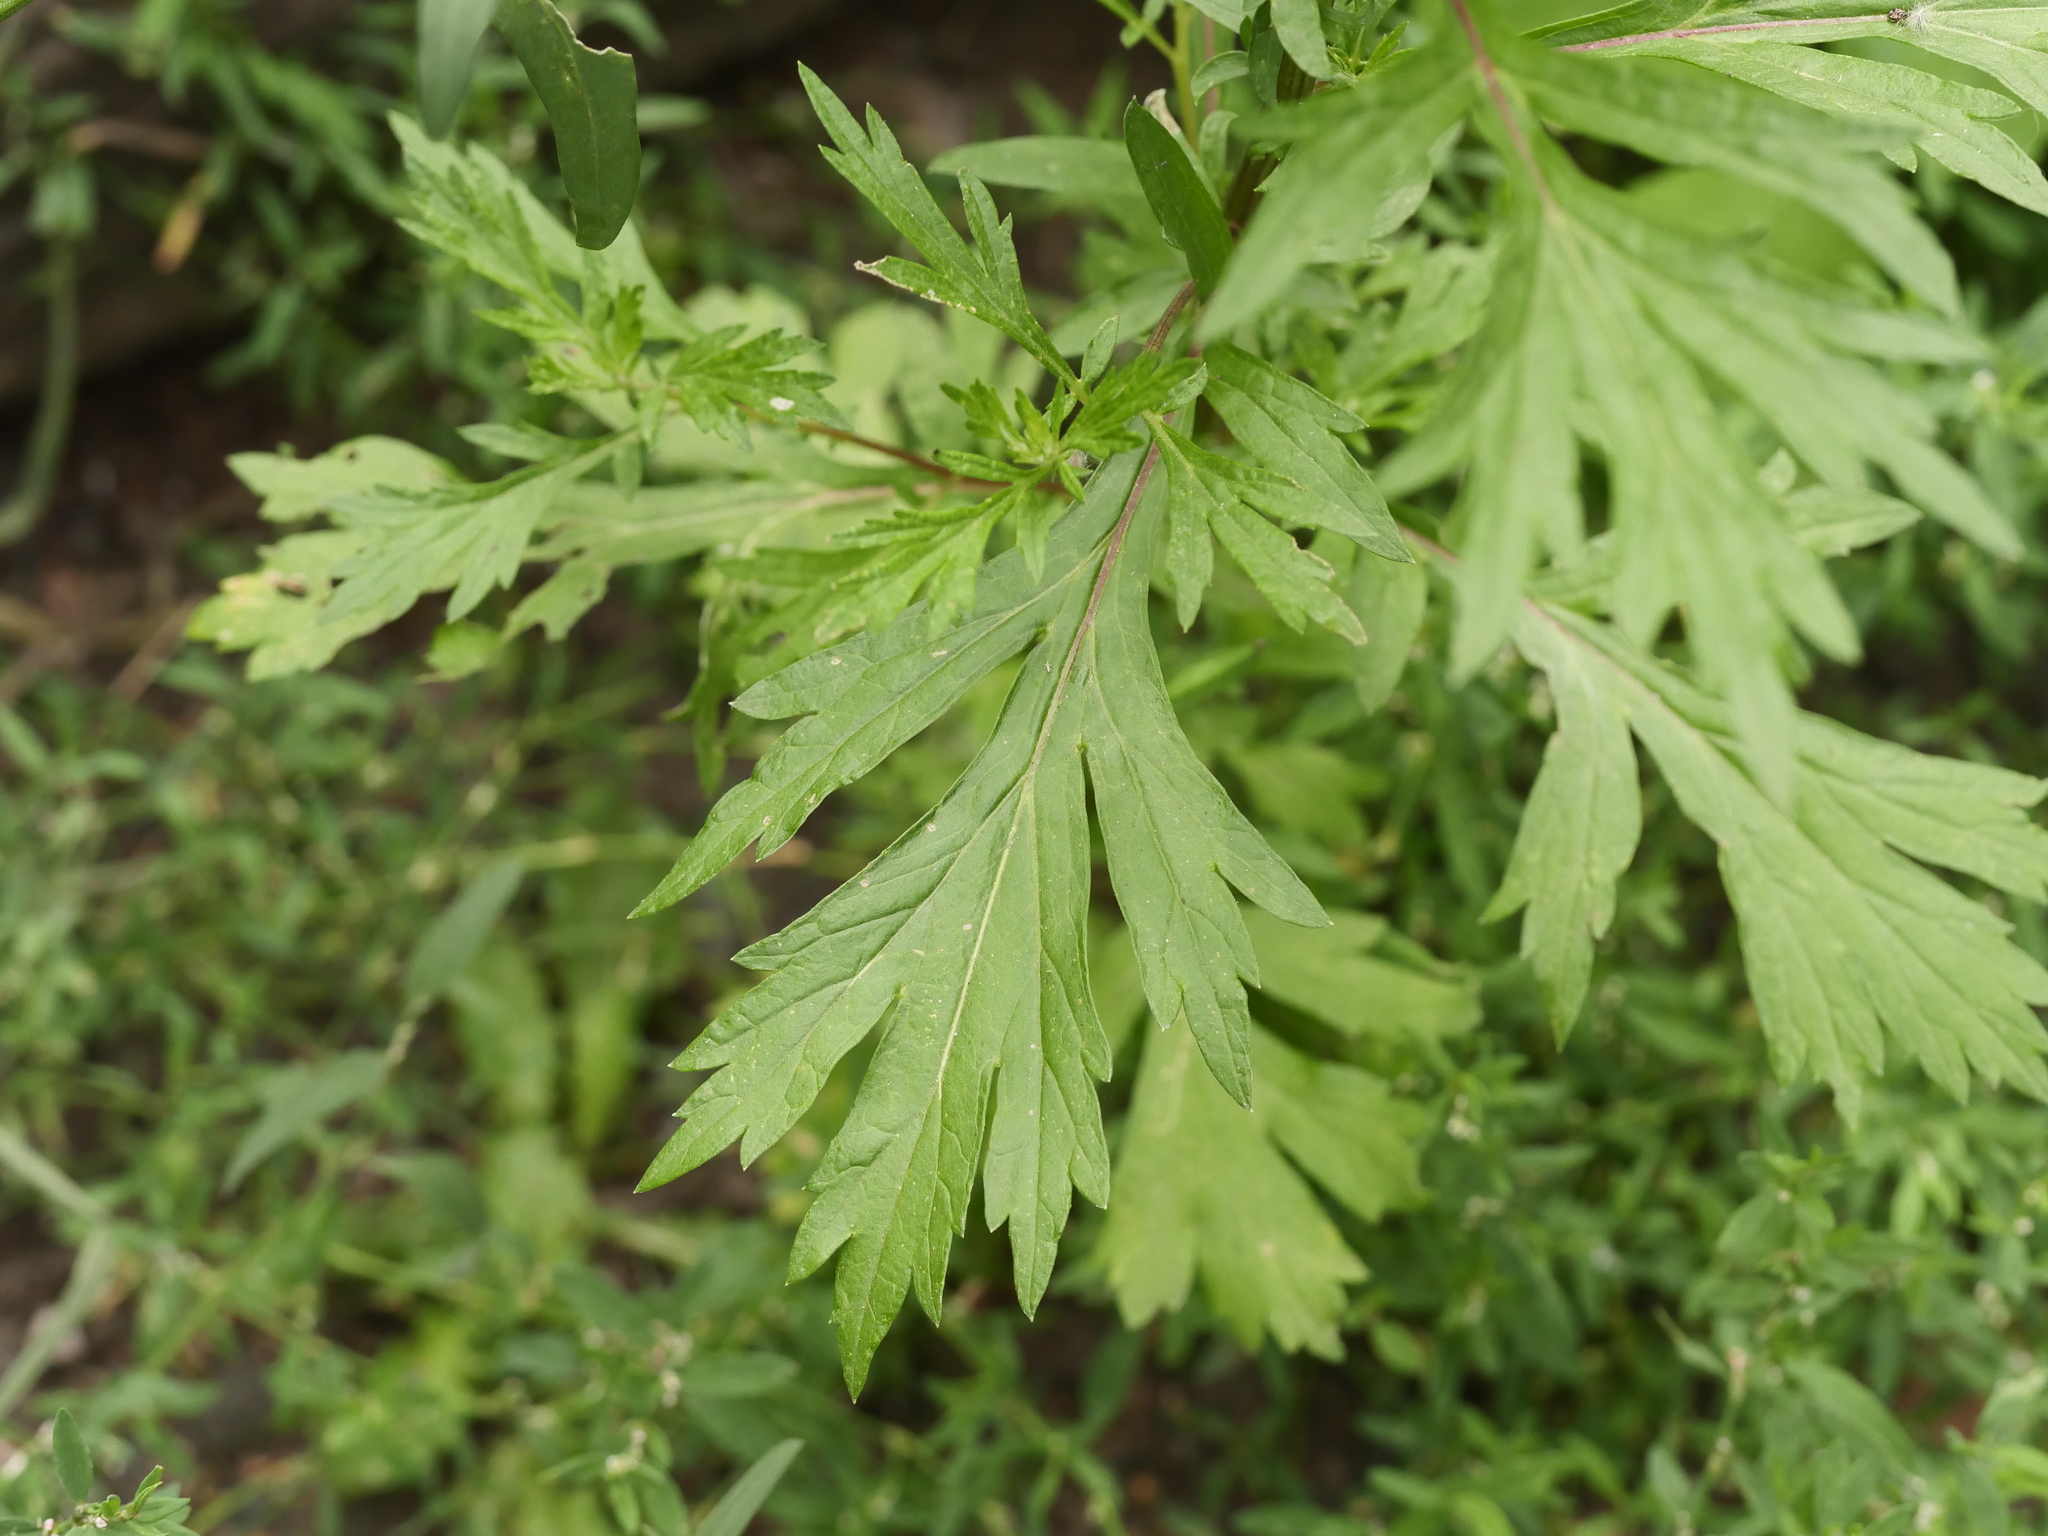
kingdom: Plantae
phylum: Tracheophyta
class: Magnoliopsida
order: Asterales
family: Asteraceae
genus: Artemisia
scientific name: Artemisia vulgaris
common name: Mugwort
